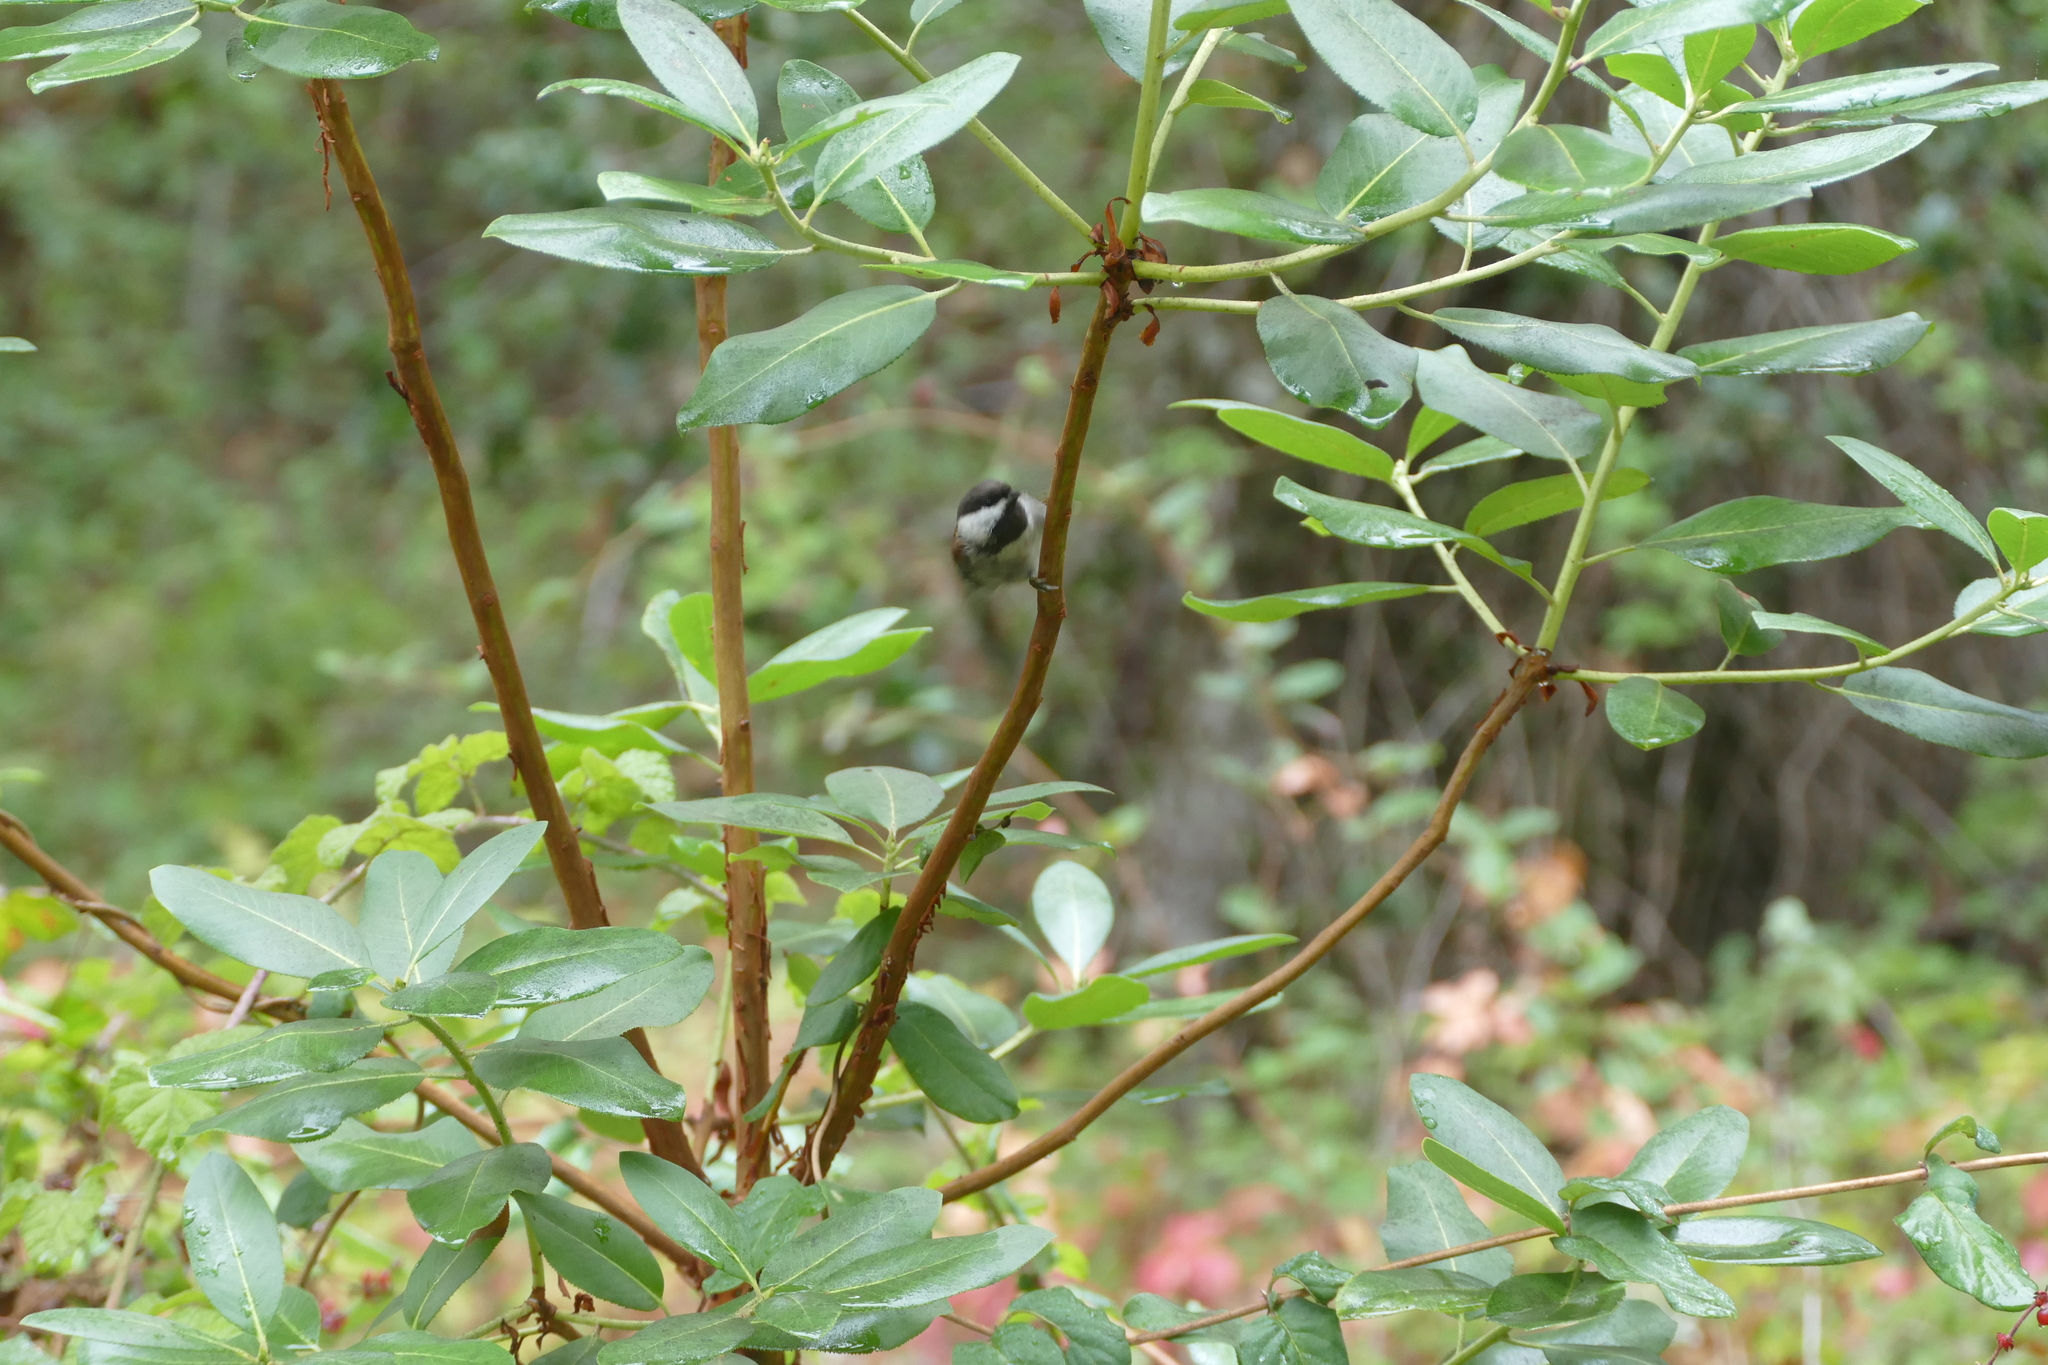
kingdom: Animalia
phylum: Chordata
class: Aves
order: Passeriformes
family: Paridae
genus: Poecile
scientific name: Poecile rufescens
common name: Chestnut-backed chickadee
